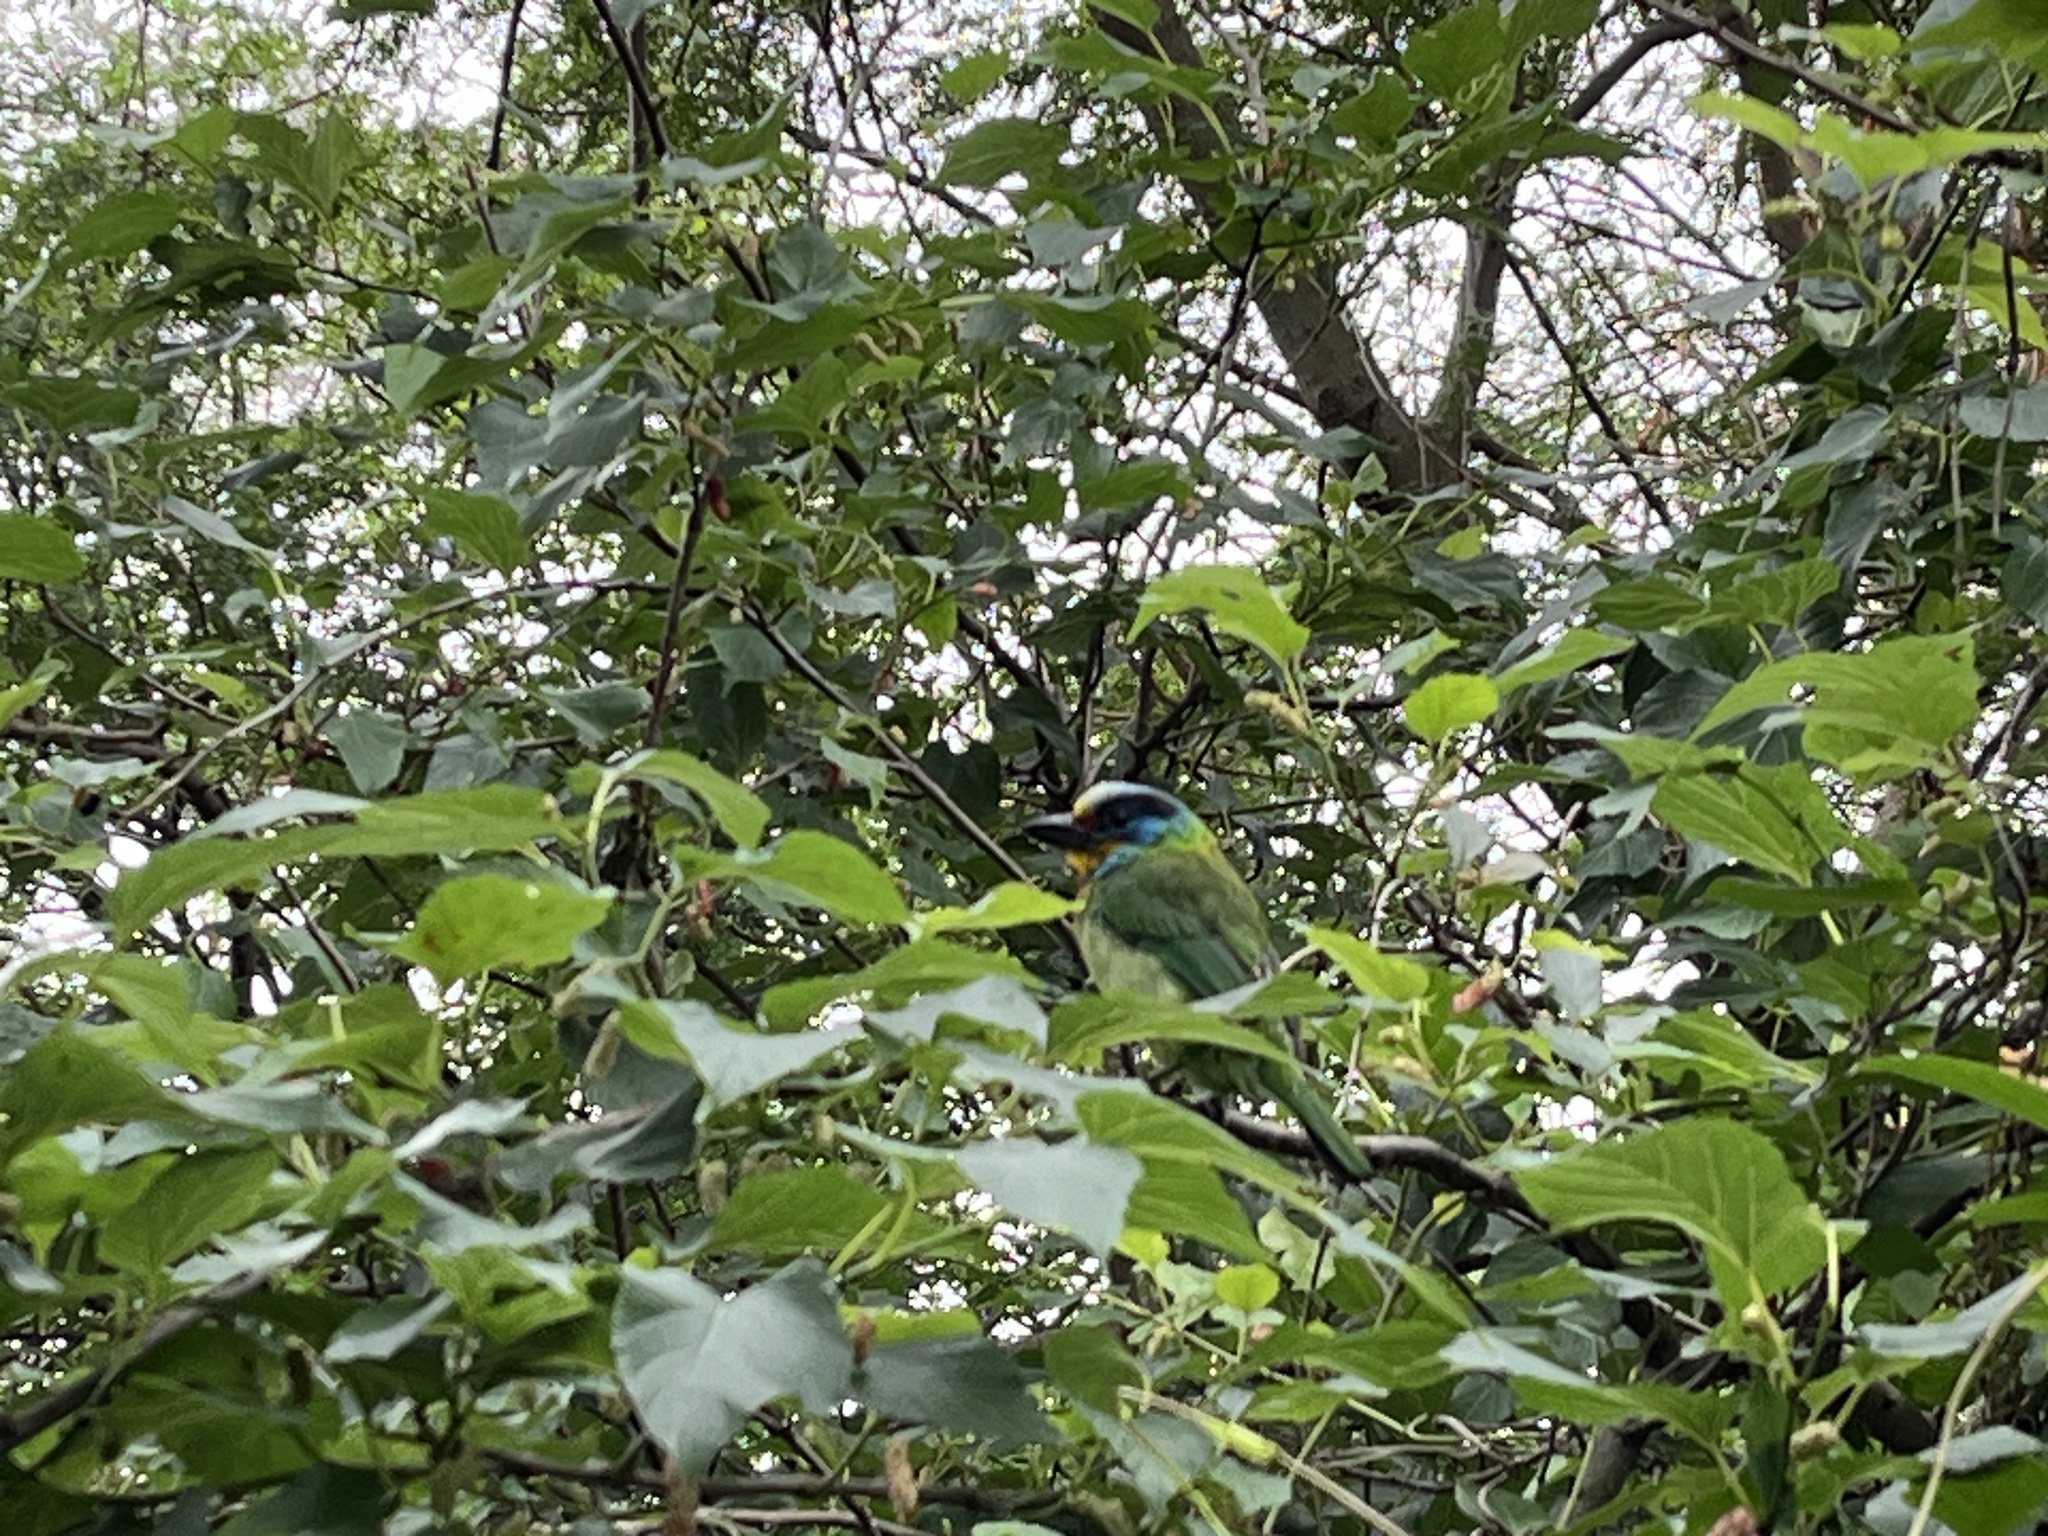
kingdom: Animalia
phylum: Chordata
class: Aves
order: Piciformes
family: Megalaimidae
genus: Psilopogon
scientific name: Psilopogon nuchalis
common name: Taiwan barbet
